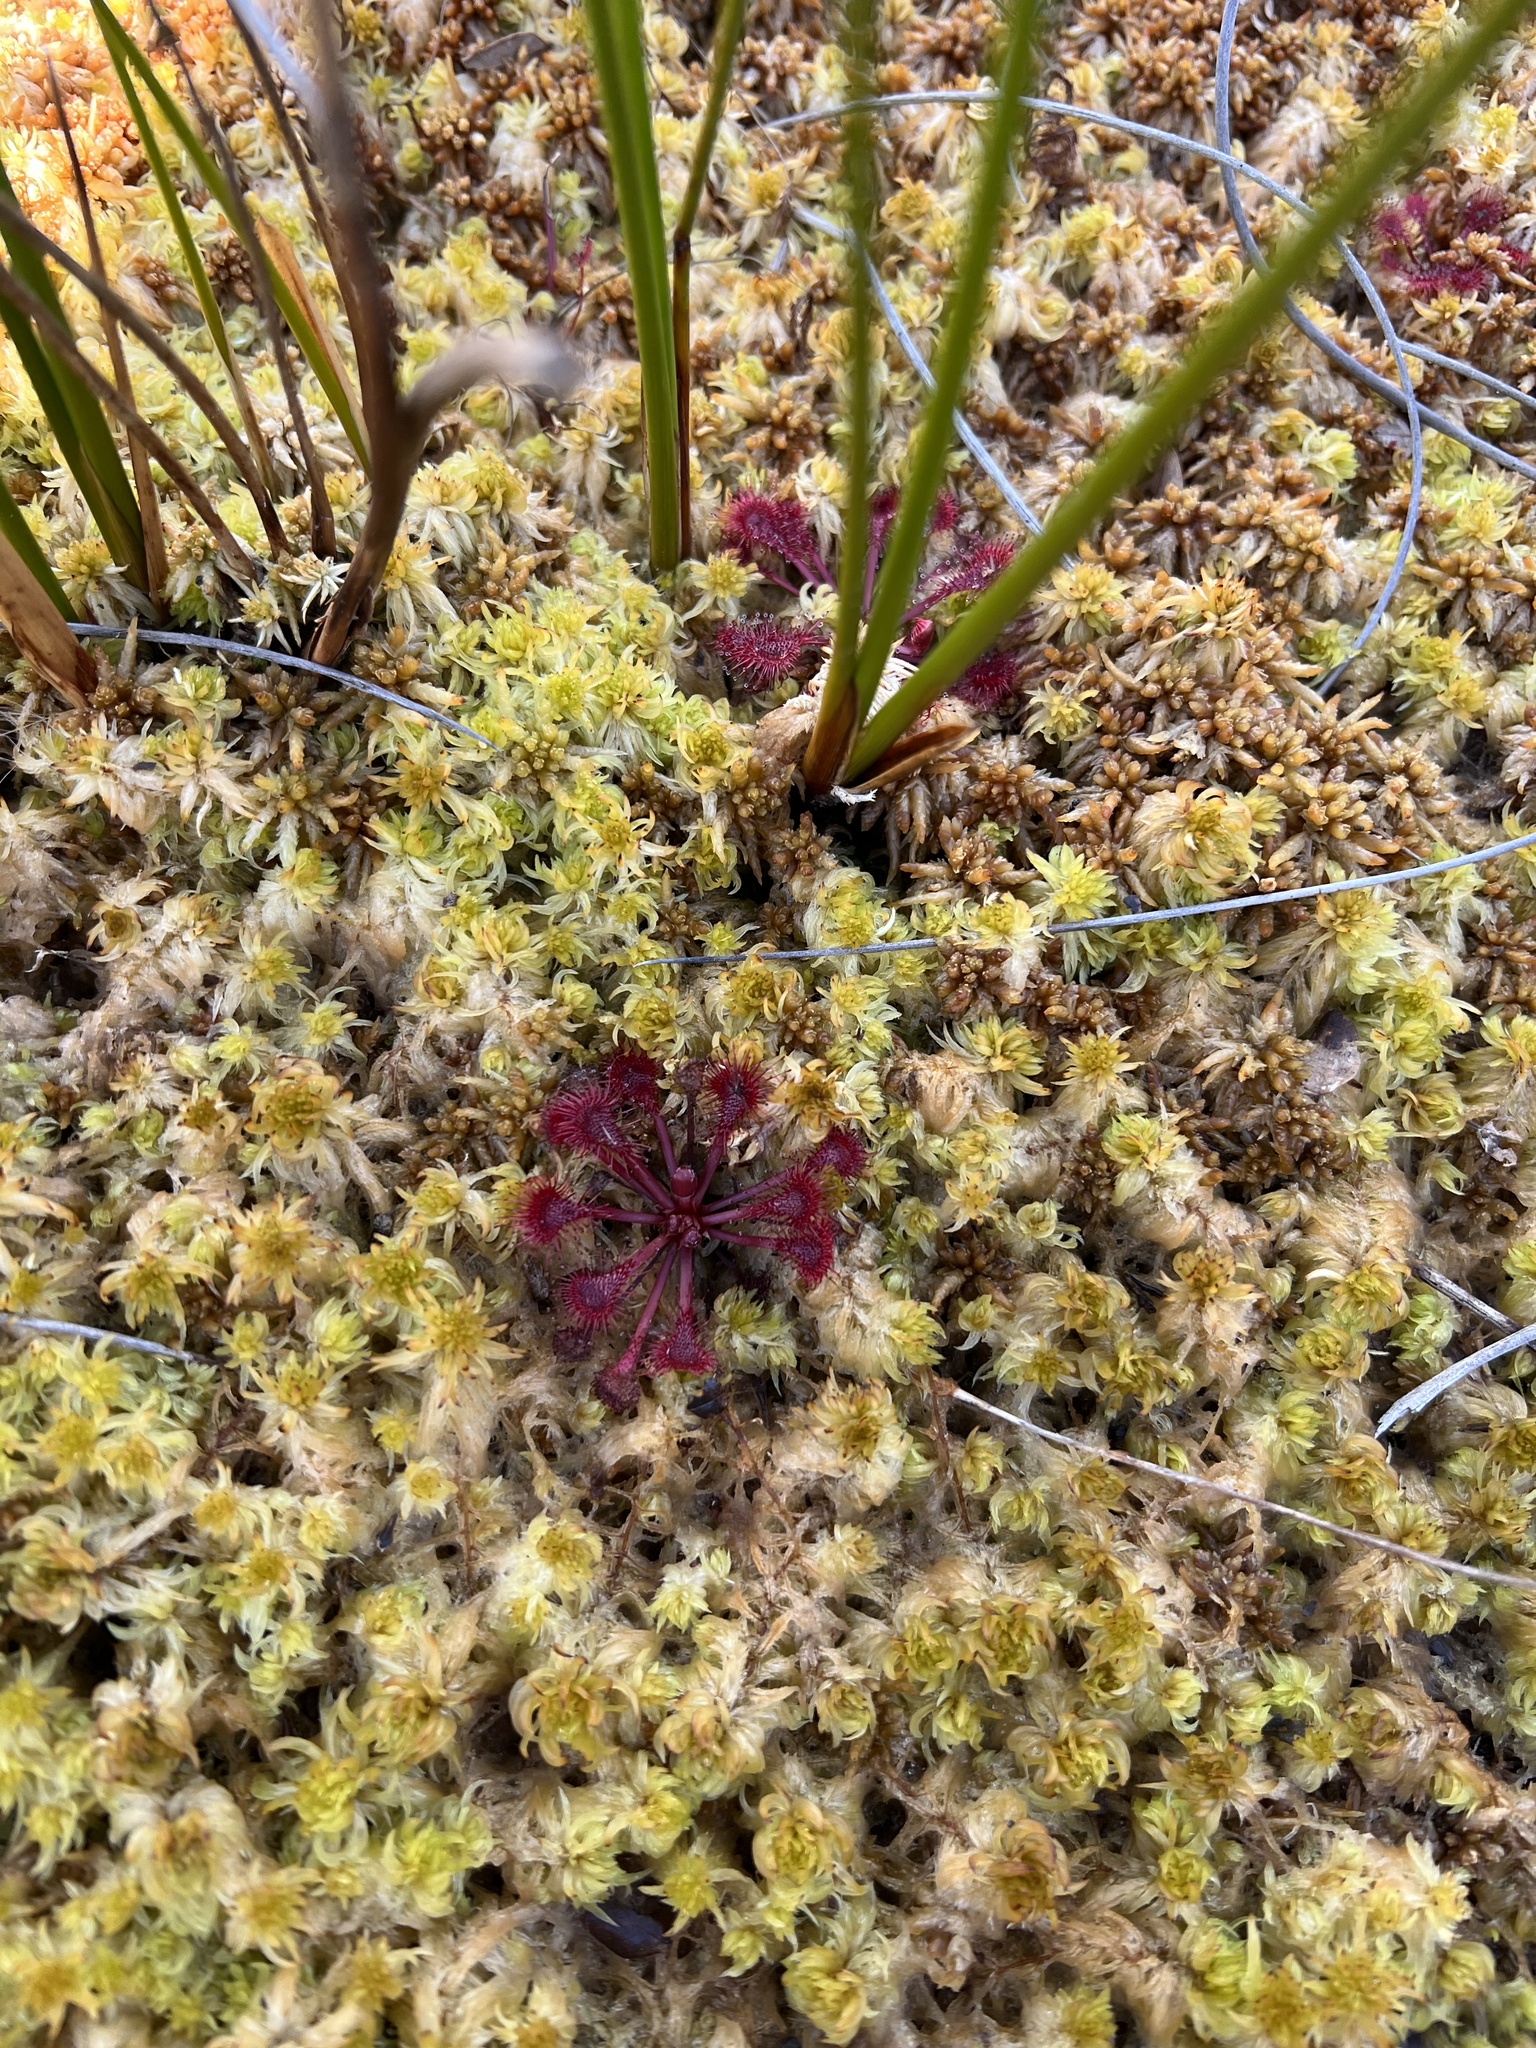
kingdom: Plantae
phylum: Tracheophyta
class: Magnoliopsida
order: Caryophyllales
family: Droseraceae
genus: Drosera
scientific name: Drosera spatulata
